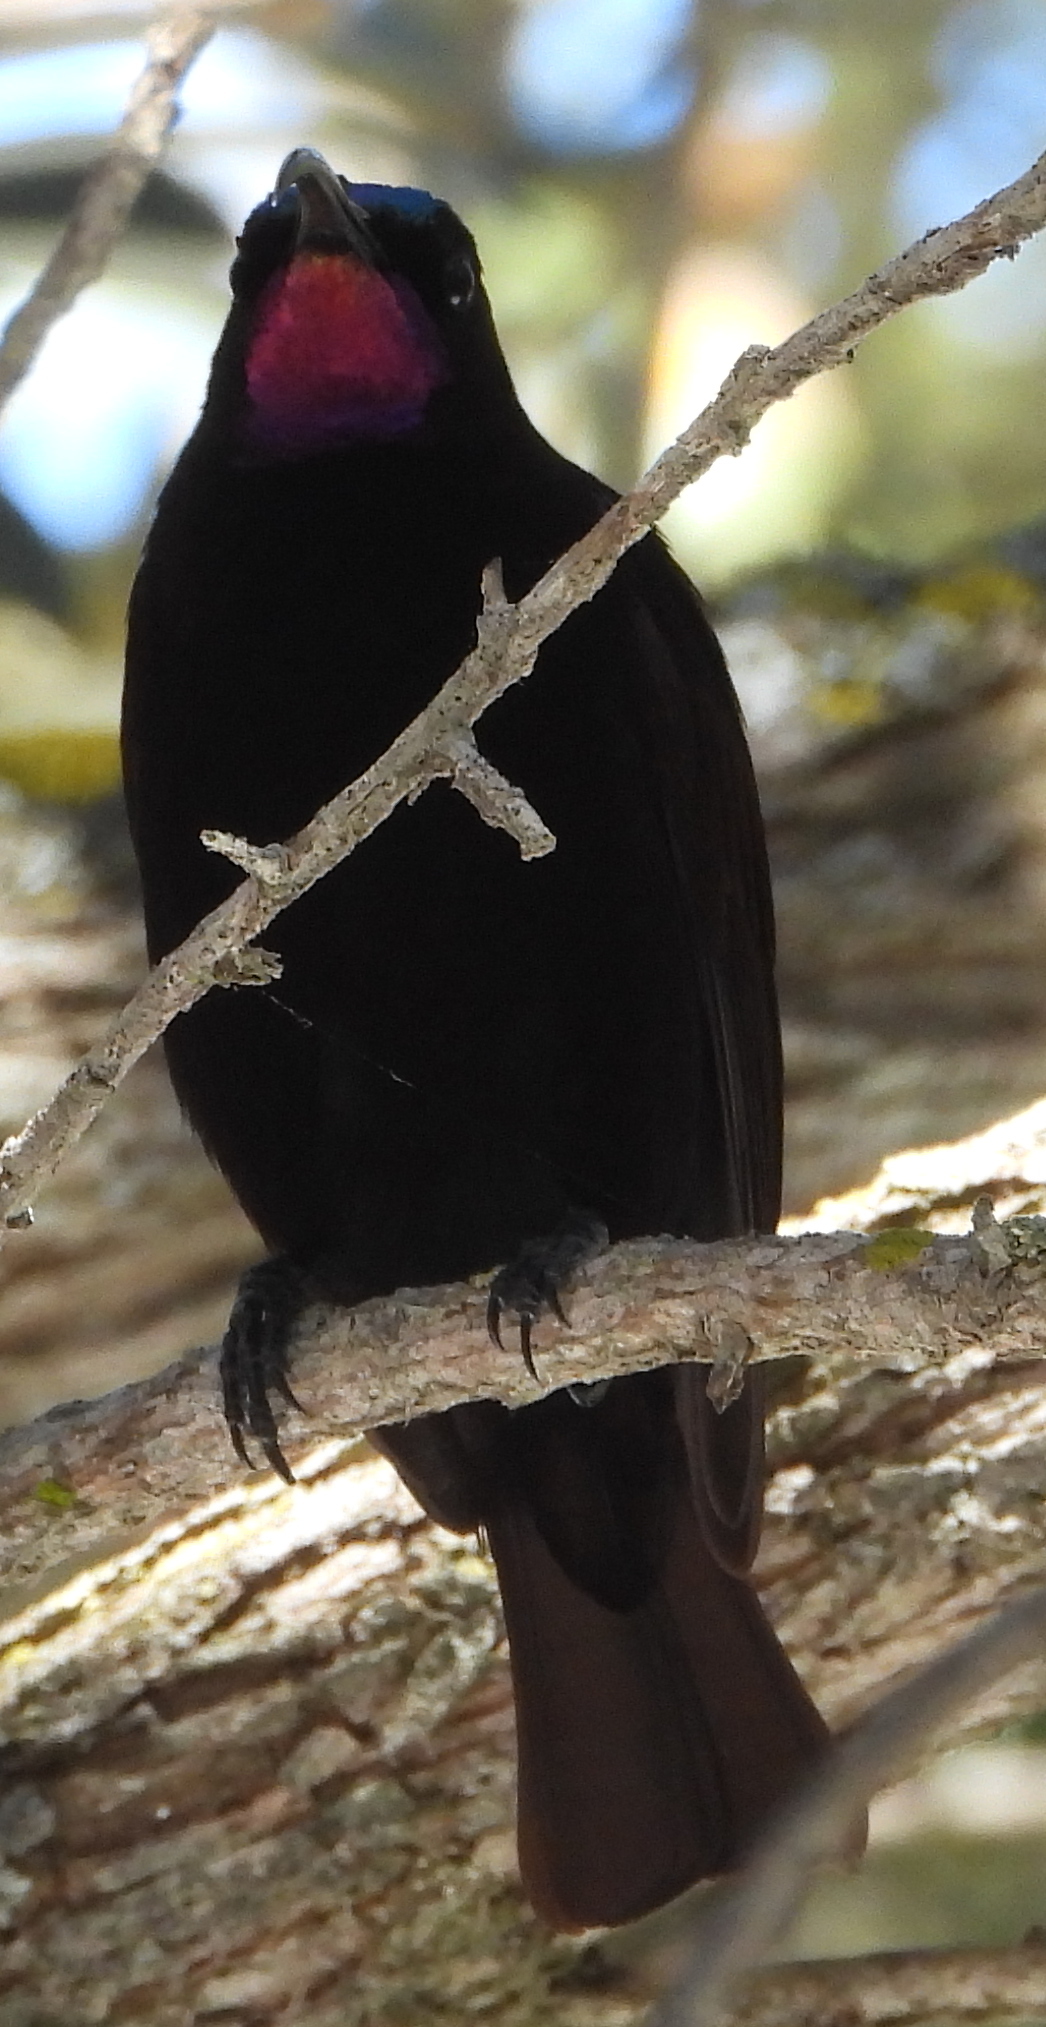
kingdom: Animalia
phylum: Chordata
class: Aves
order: Passeriformes
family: Nectariniidae
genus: Chalcomitra
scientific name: Chalcomitra amethystina
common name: Amethyst sunbird
